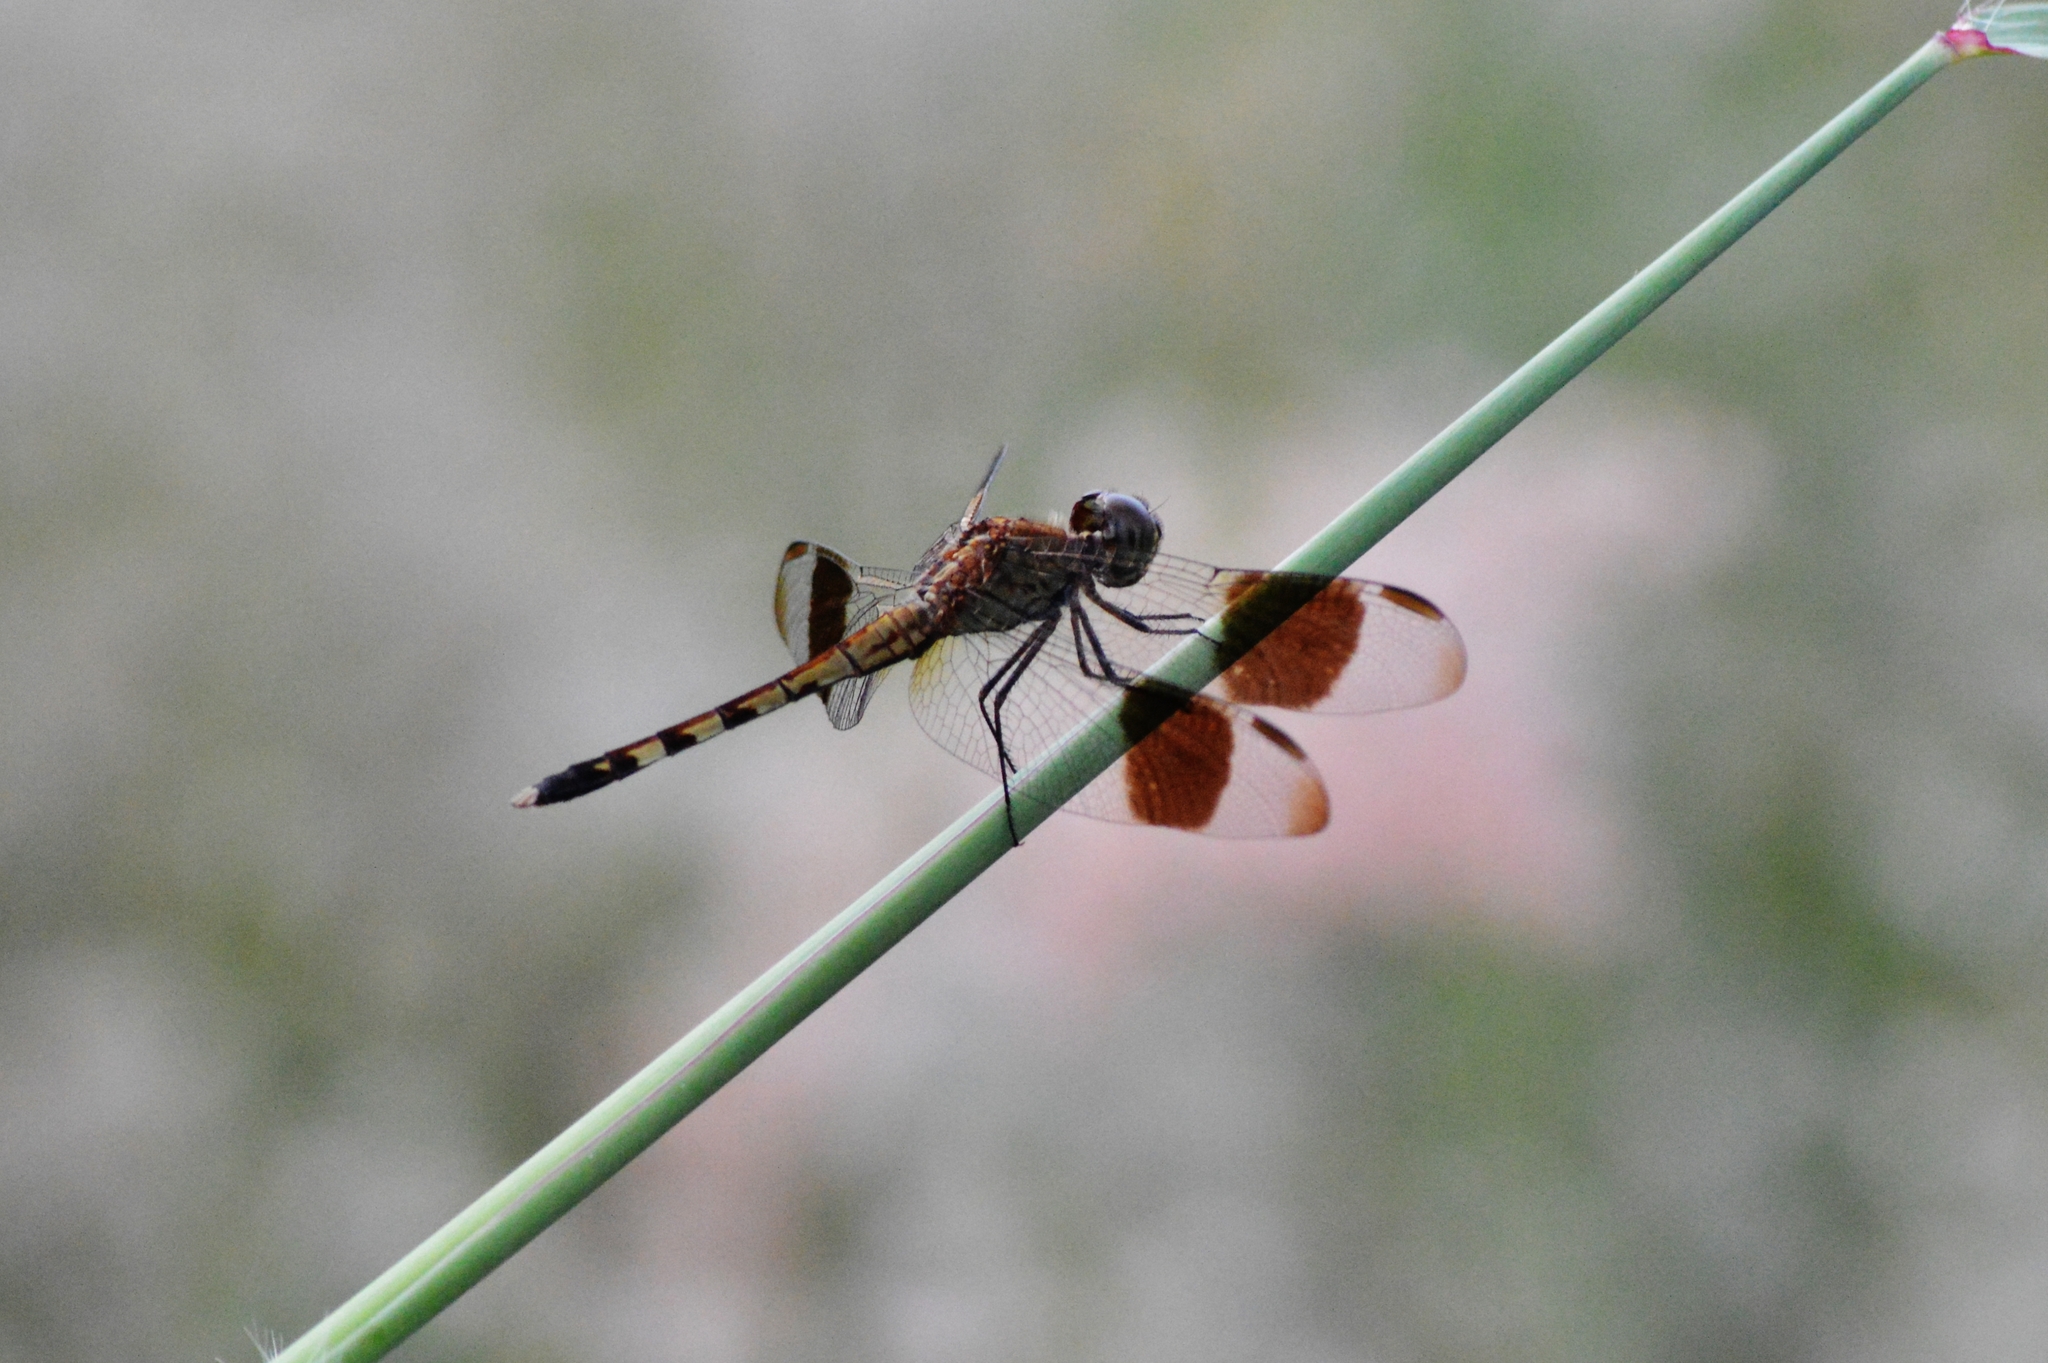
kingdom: Animalia
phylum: Arthropoda
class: Insecta
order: Odonata
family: Libellulidae
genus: Erythrodiplax
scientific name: Erythrodiplax umbrata
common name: Band-winged dragonlet
